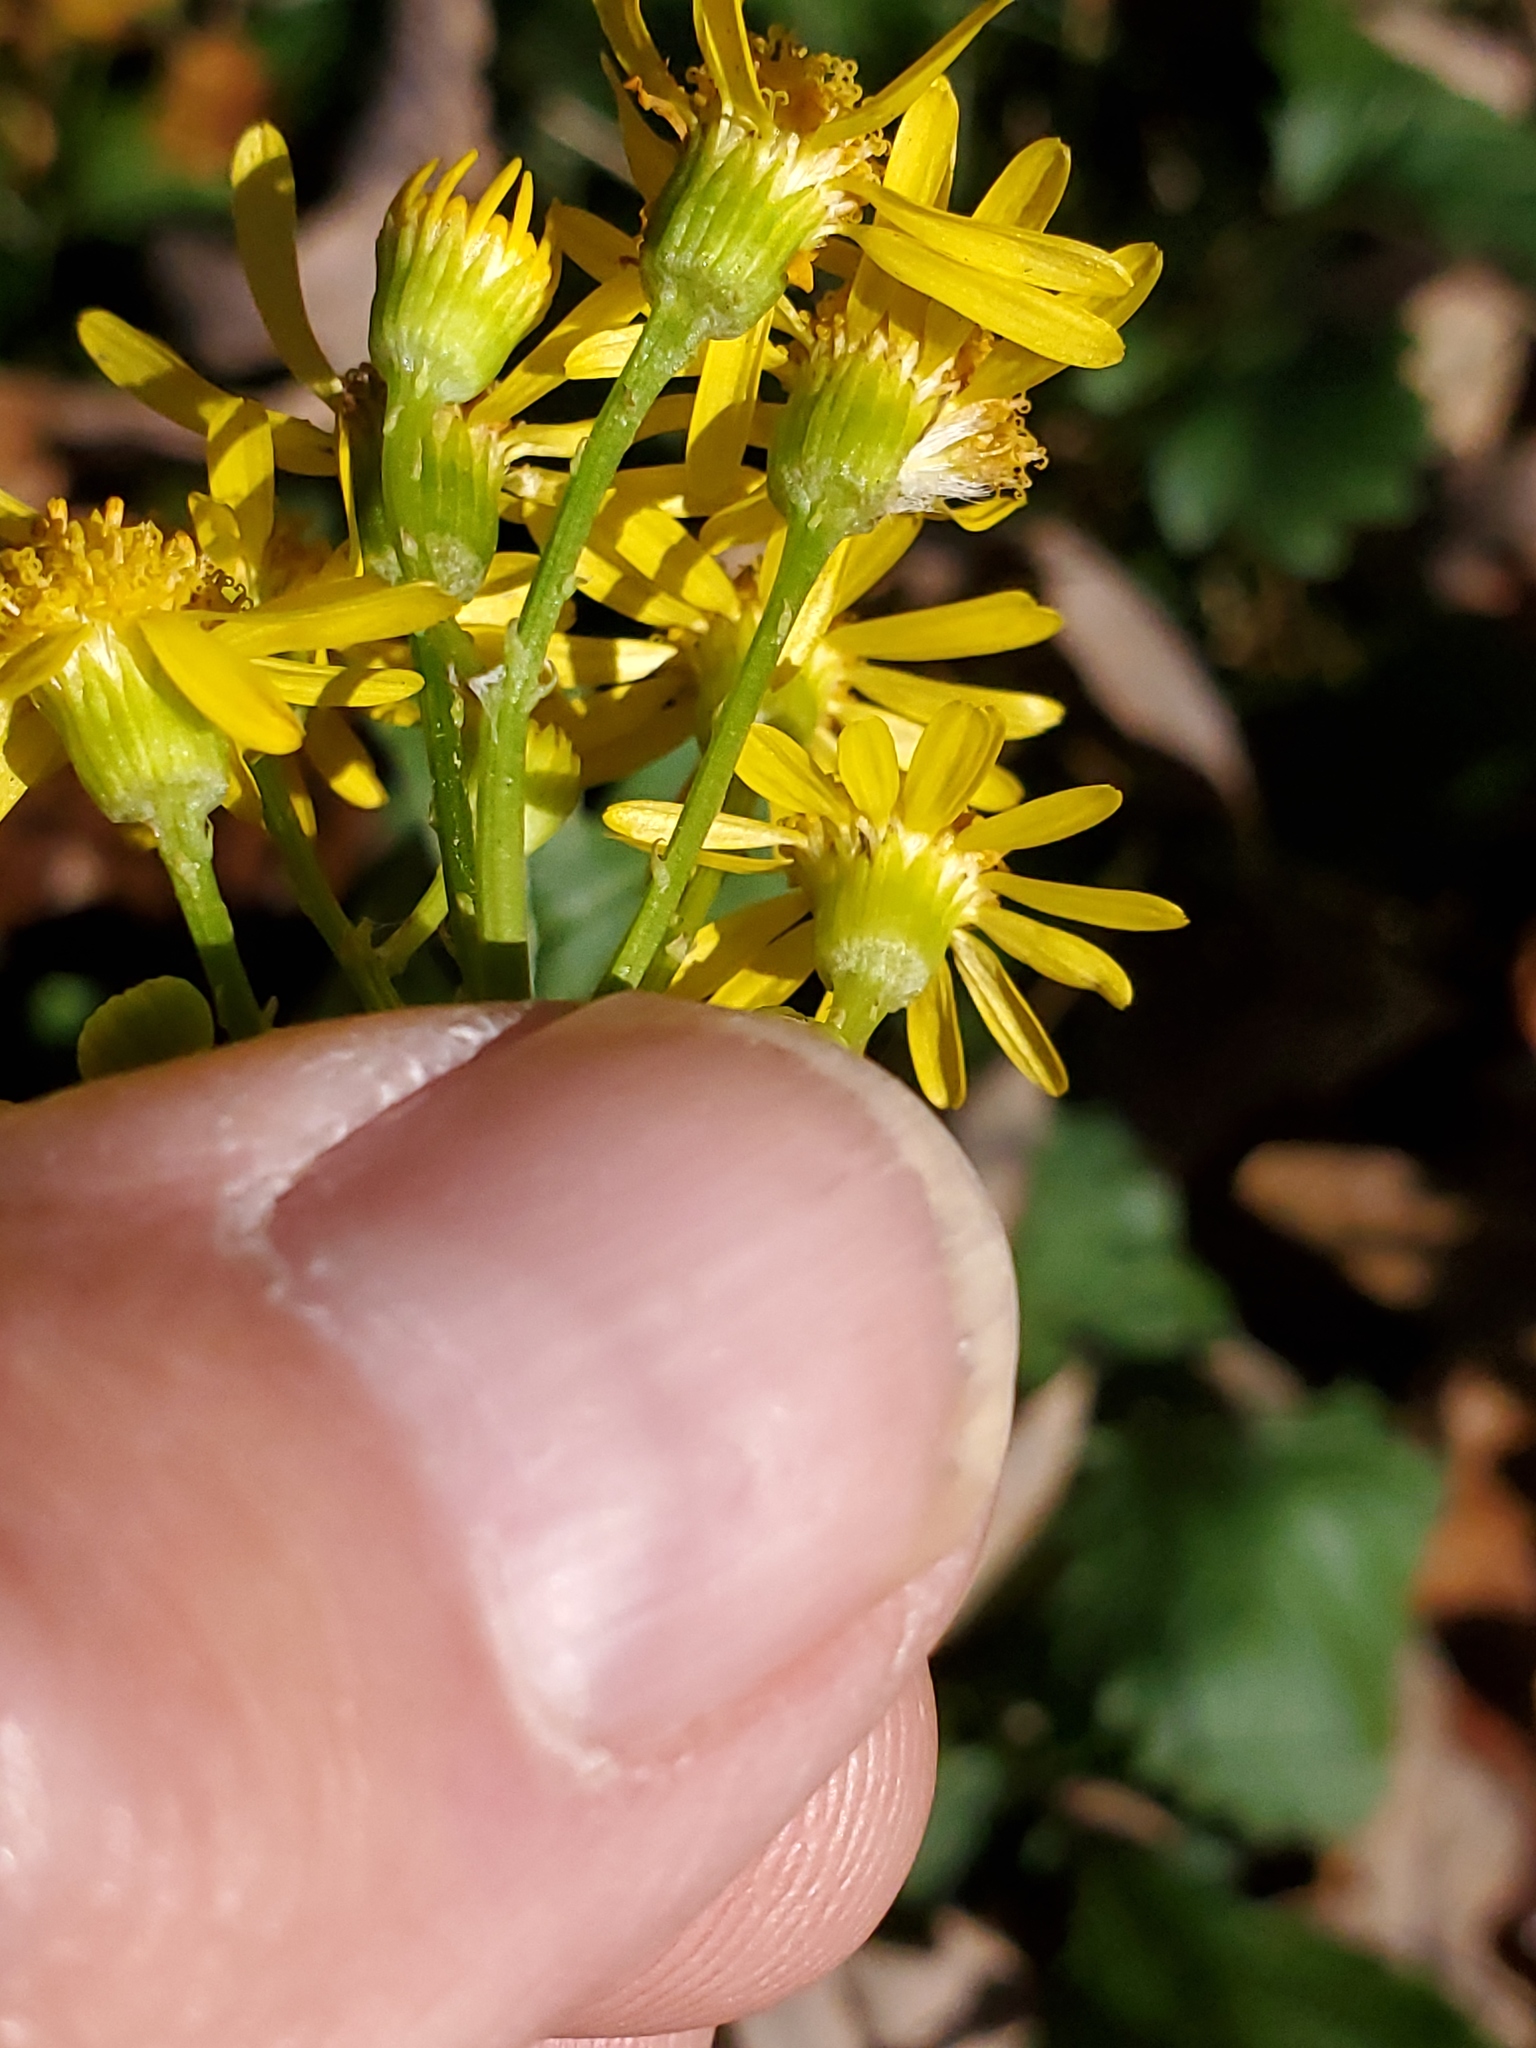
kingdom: Plantae
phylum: Tracheophyta
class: Magnoliopsida
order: Asterales
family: Asteraceae
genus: Packera
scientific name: Packera glabella
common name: Butterweed
